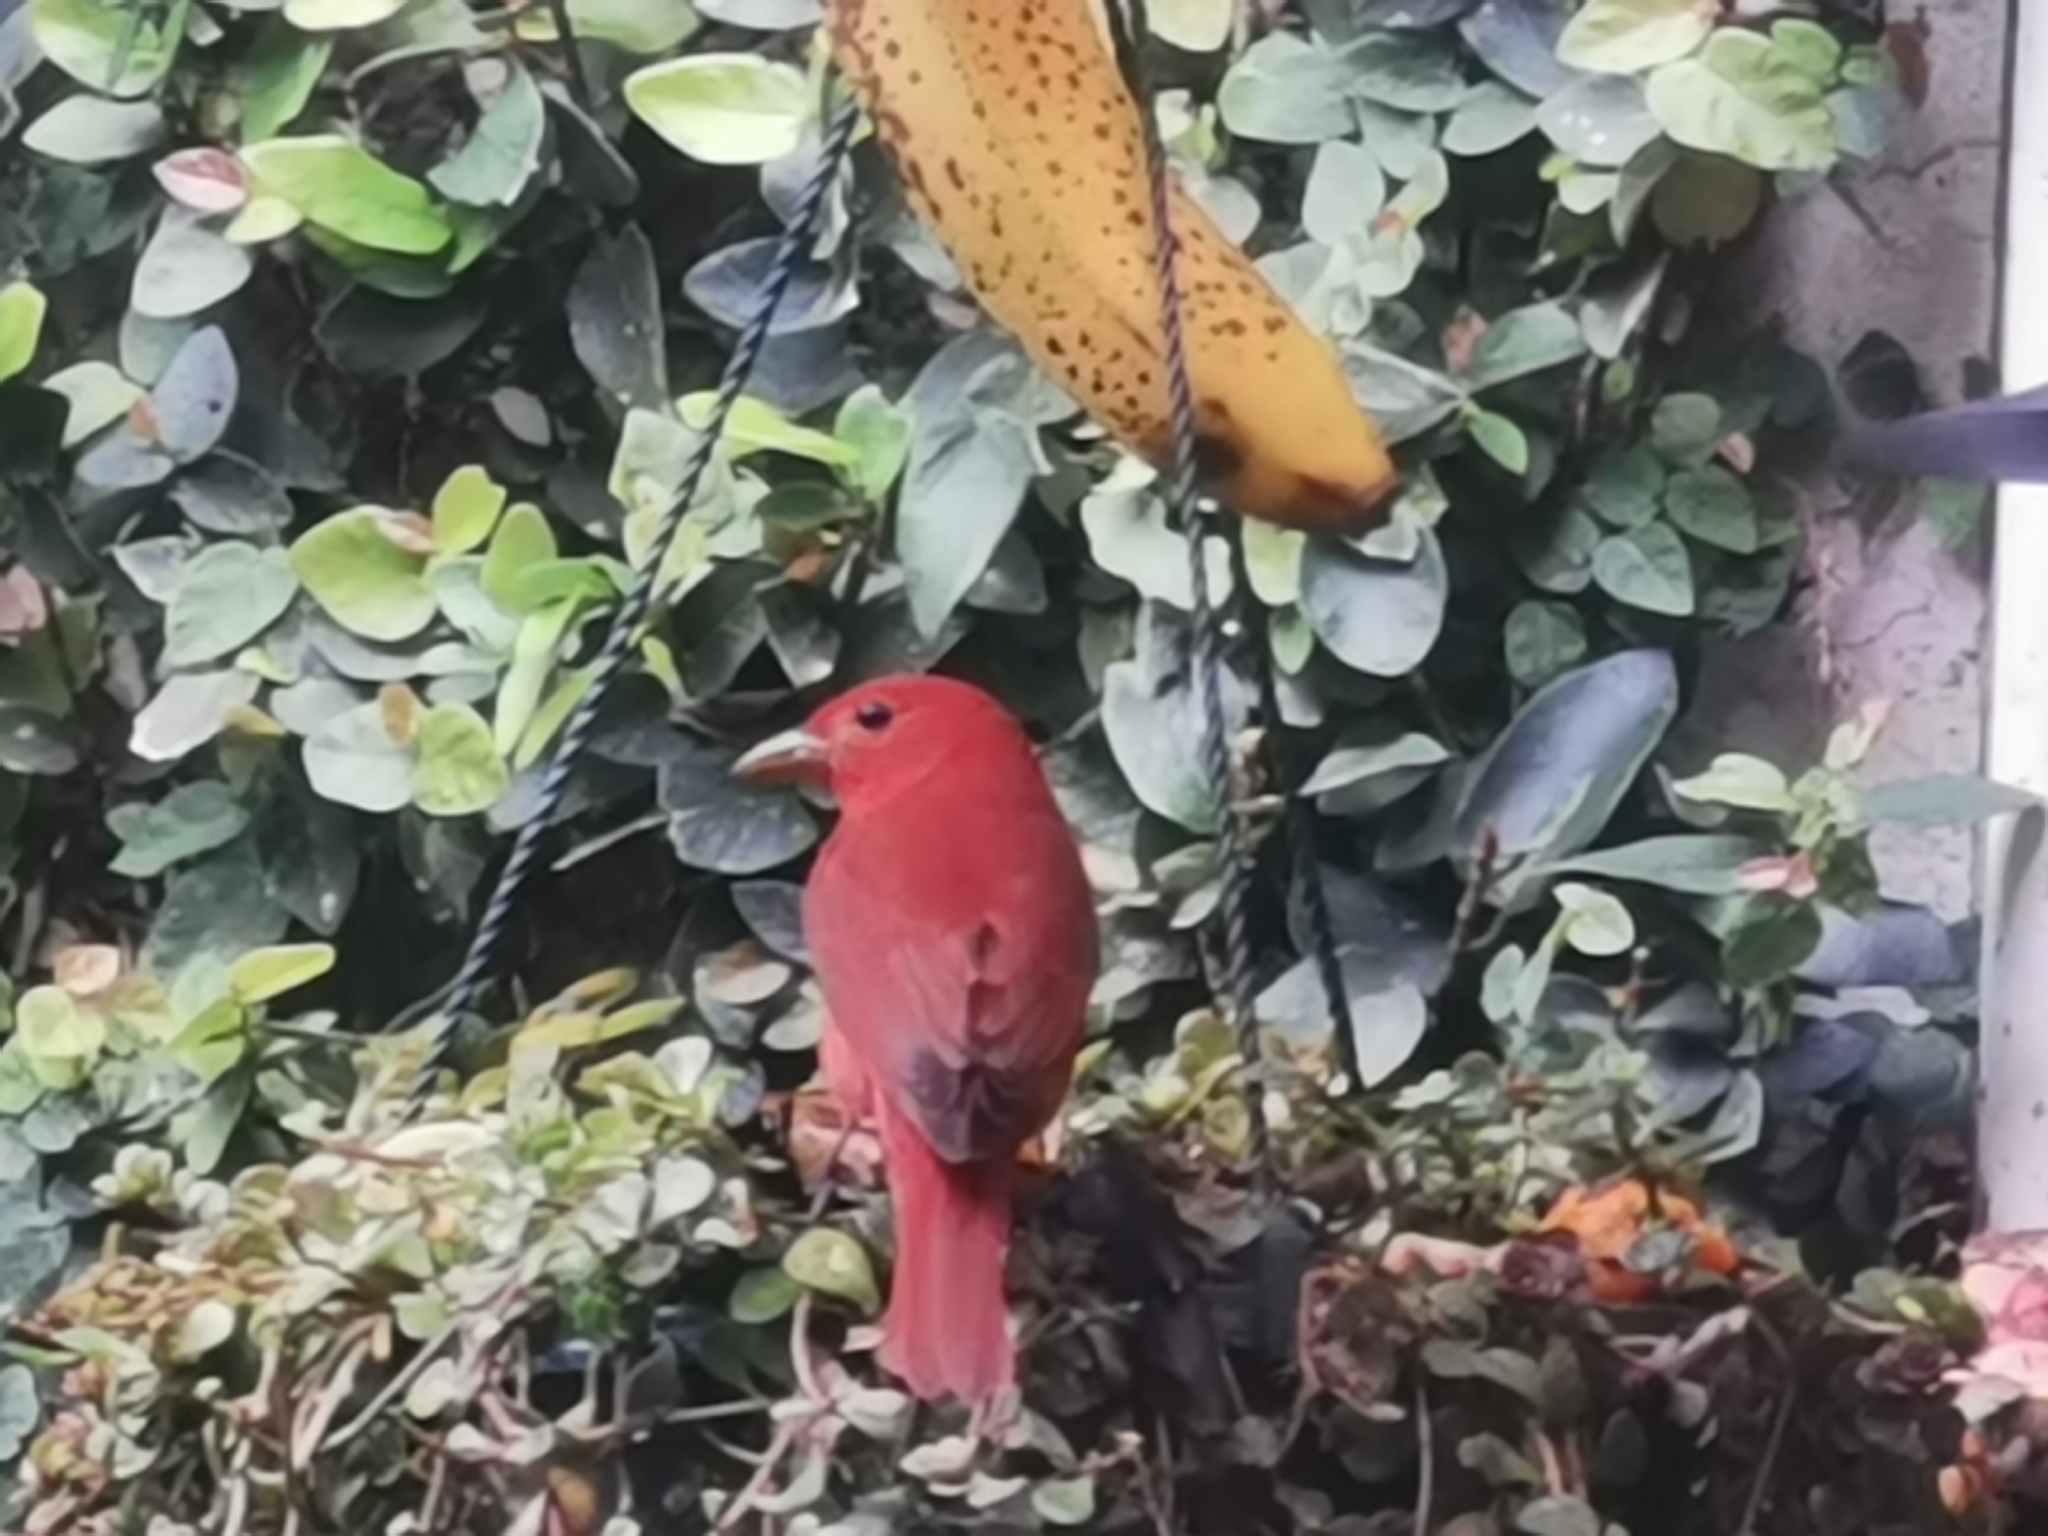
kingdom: Animalia
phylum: Chordata
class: Aves
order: Passeriformes
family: Cardinalidae
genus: Piranga
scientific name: Piranga rubra
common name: Summer tanager
